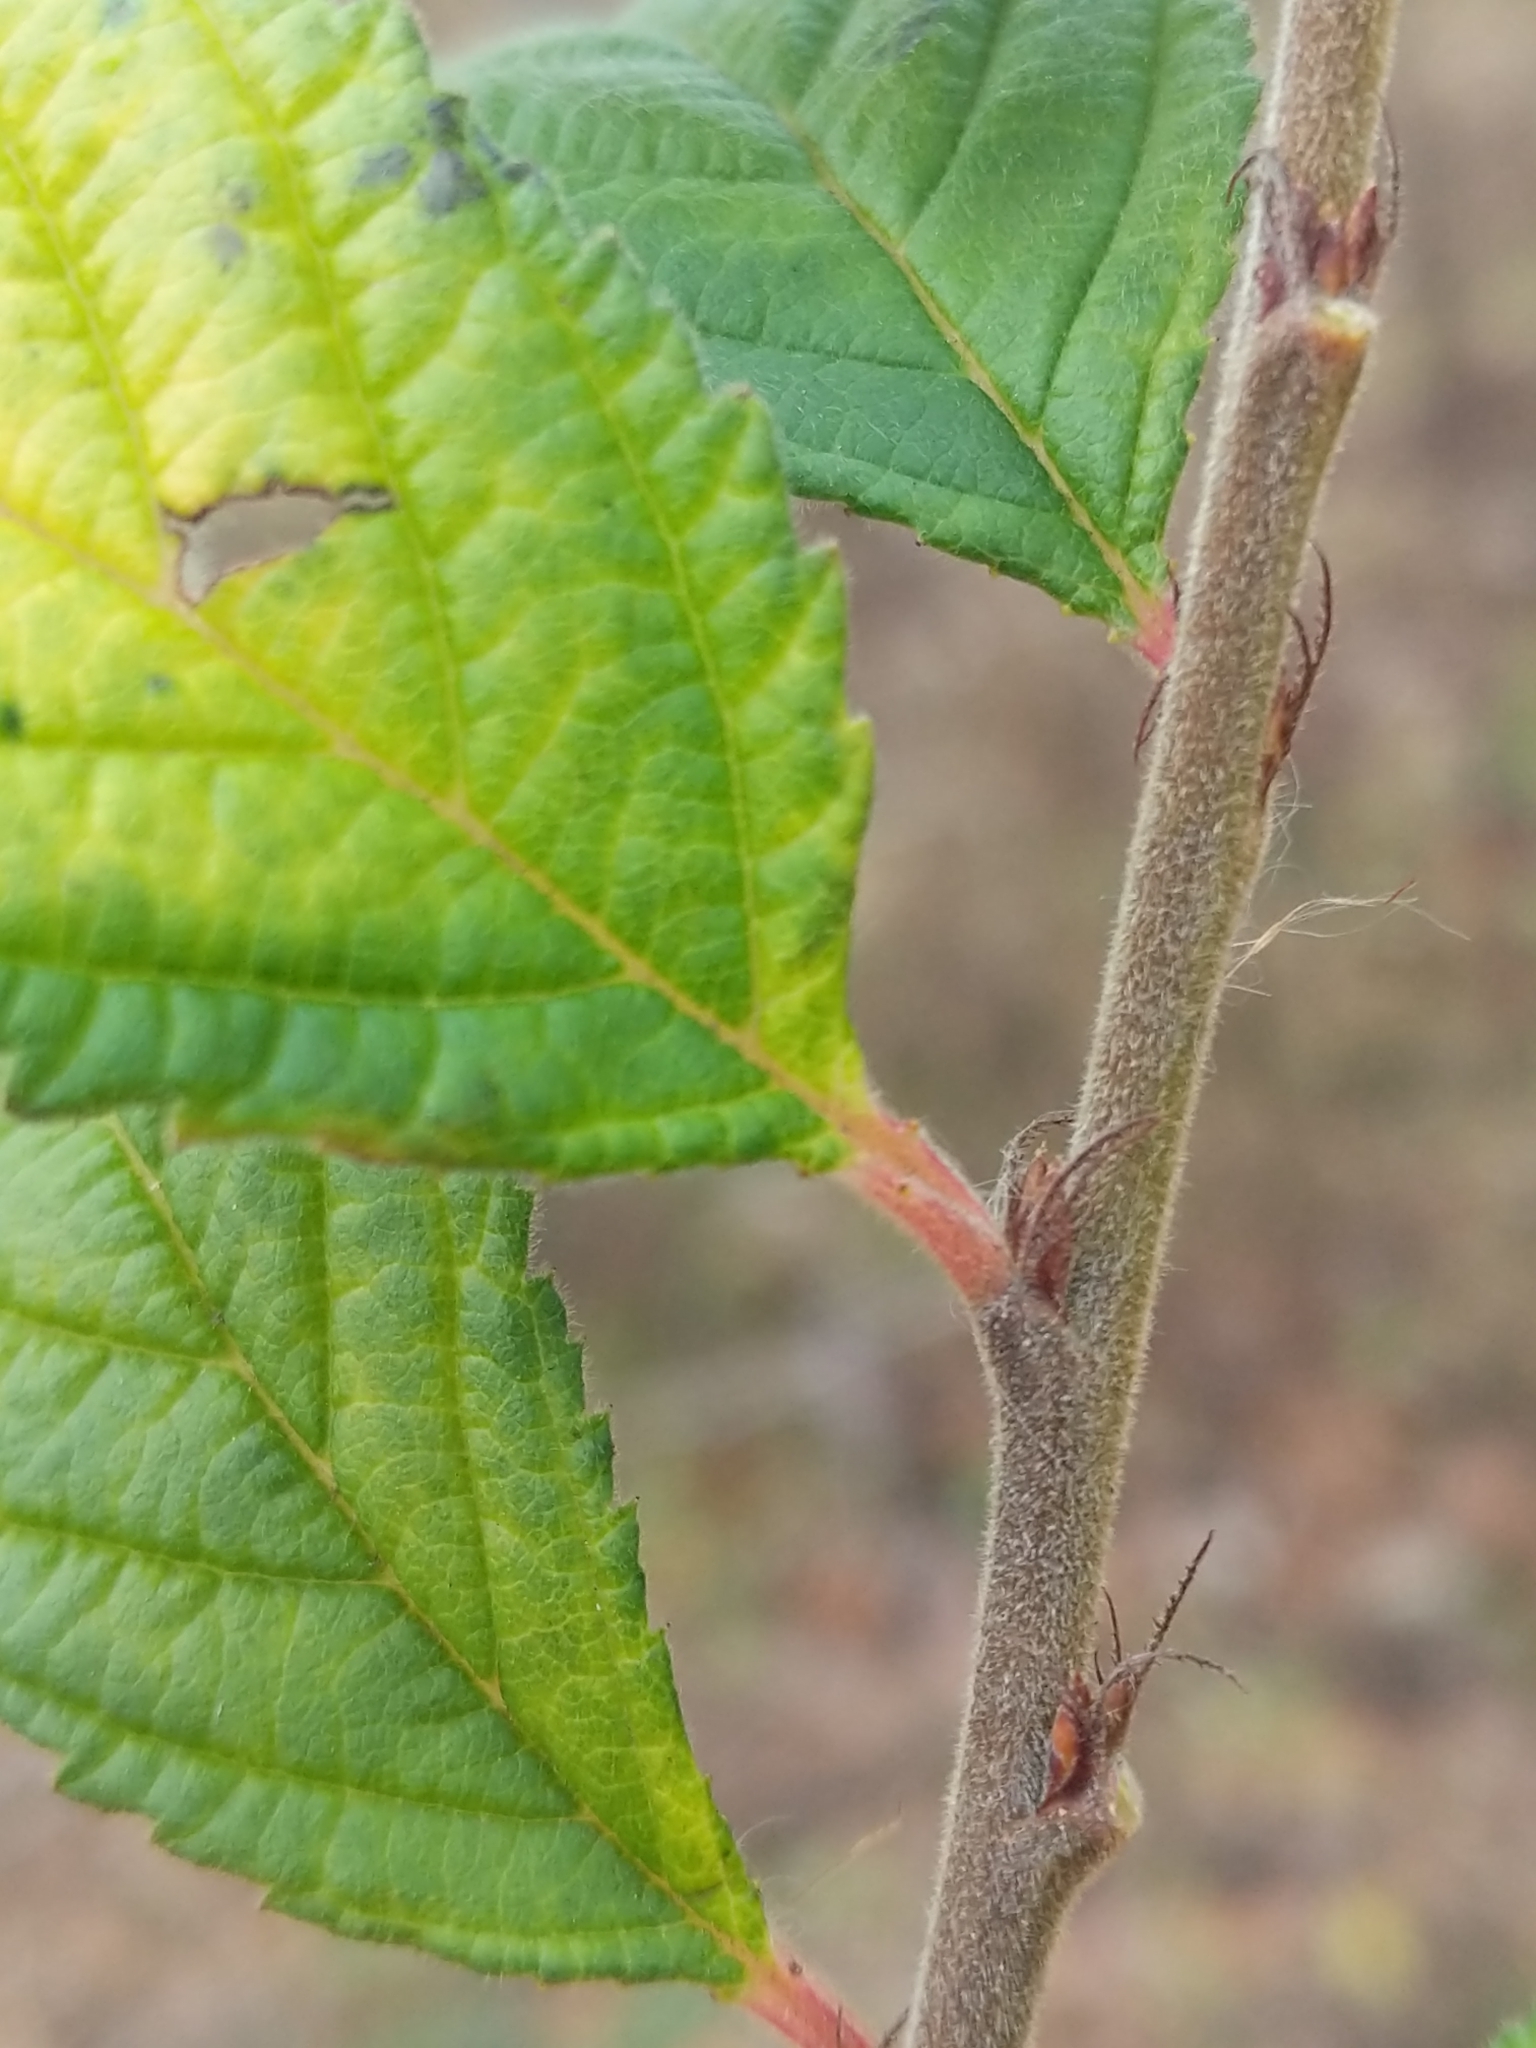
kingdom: Plantae
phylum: Tracheophyta
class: Magnoliopsida
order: Rosales
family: Rosaceae
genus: Prunus
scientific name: Prunus tomentosa
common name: Nanking cherry
